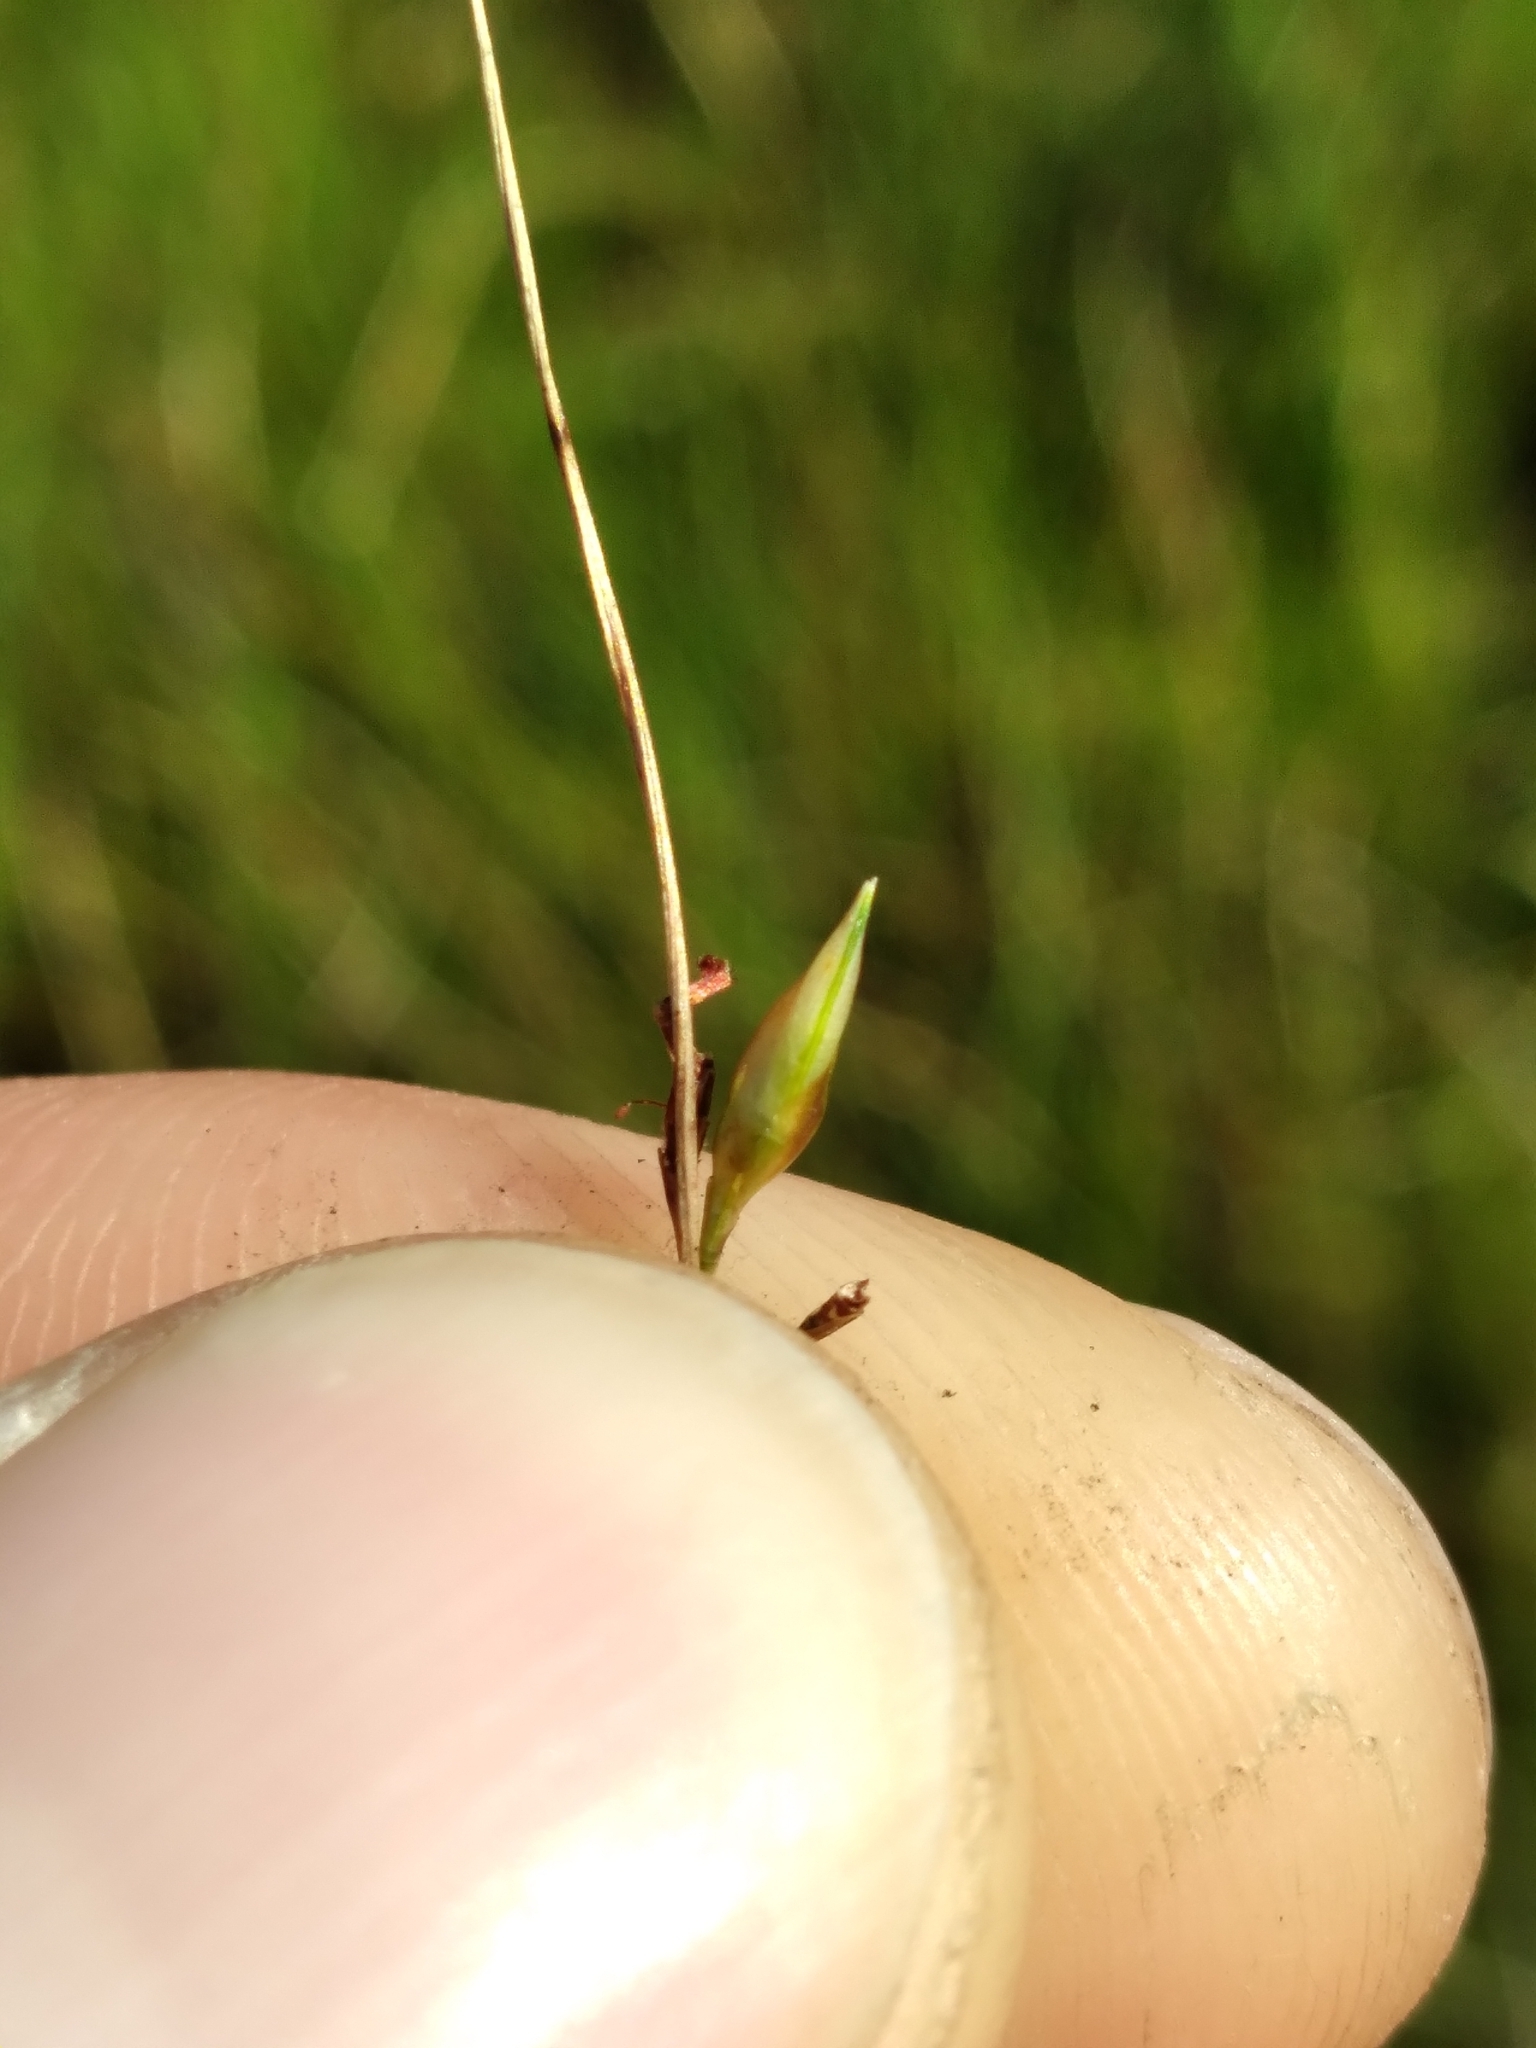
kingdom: Plantae
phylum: Tracheophyta
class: Liliopsida
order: Poales
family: Cyperaceae
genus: Rhynchospora
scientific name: Rhynchospora galeana
